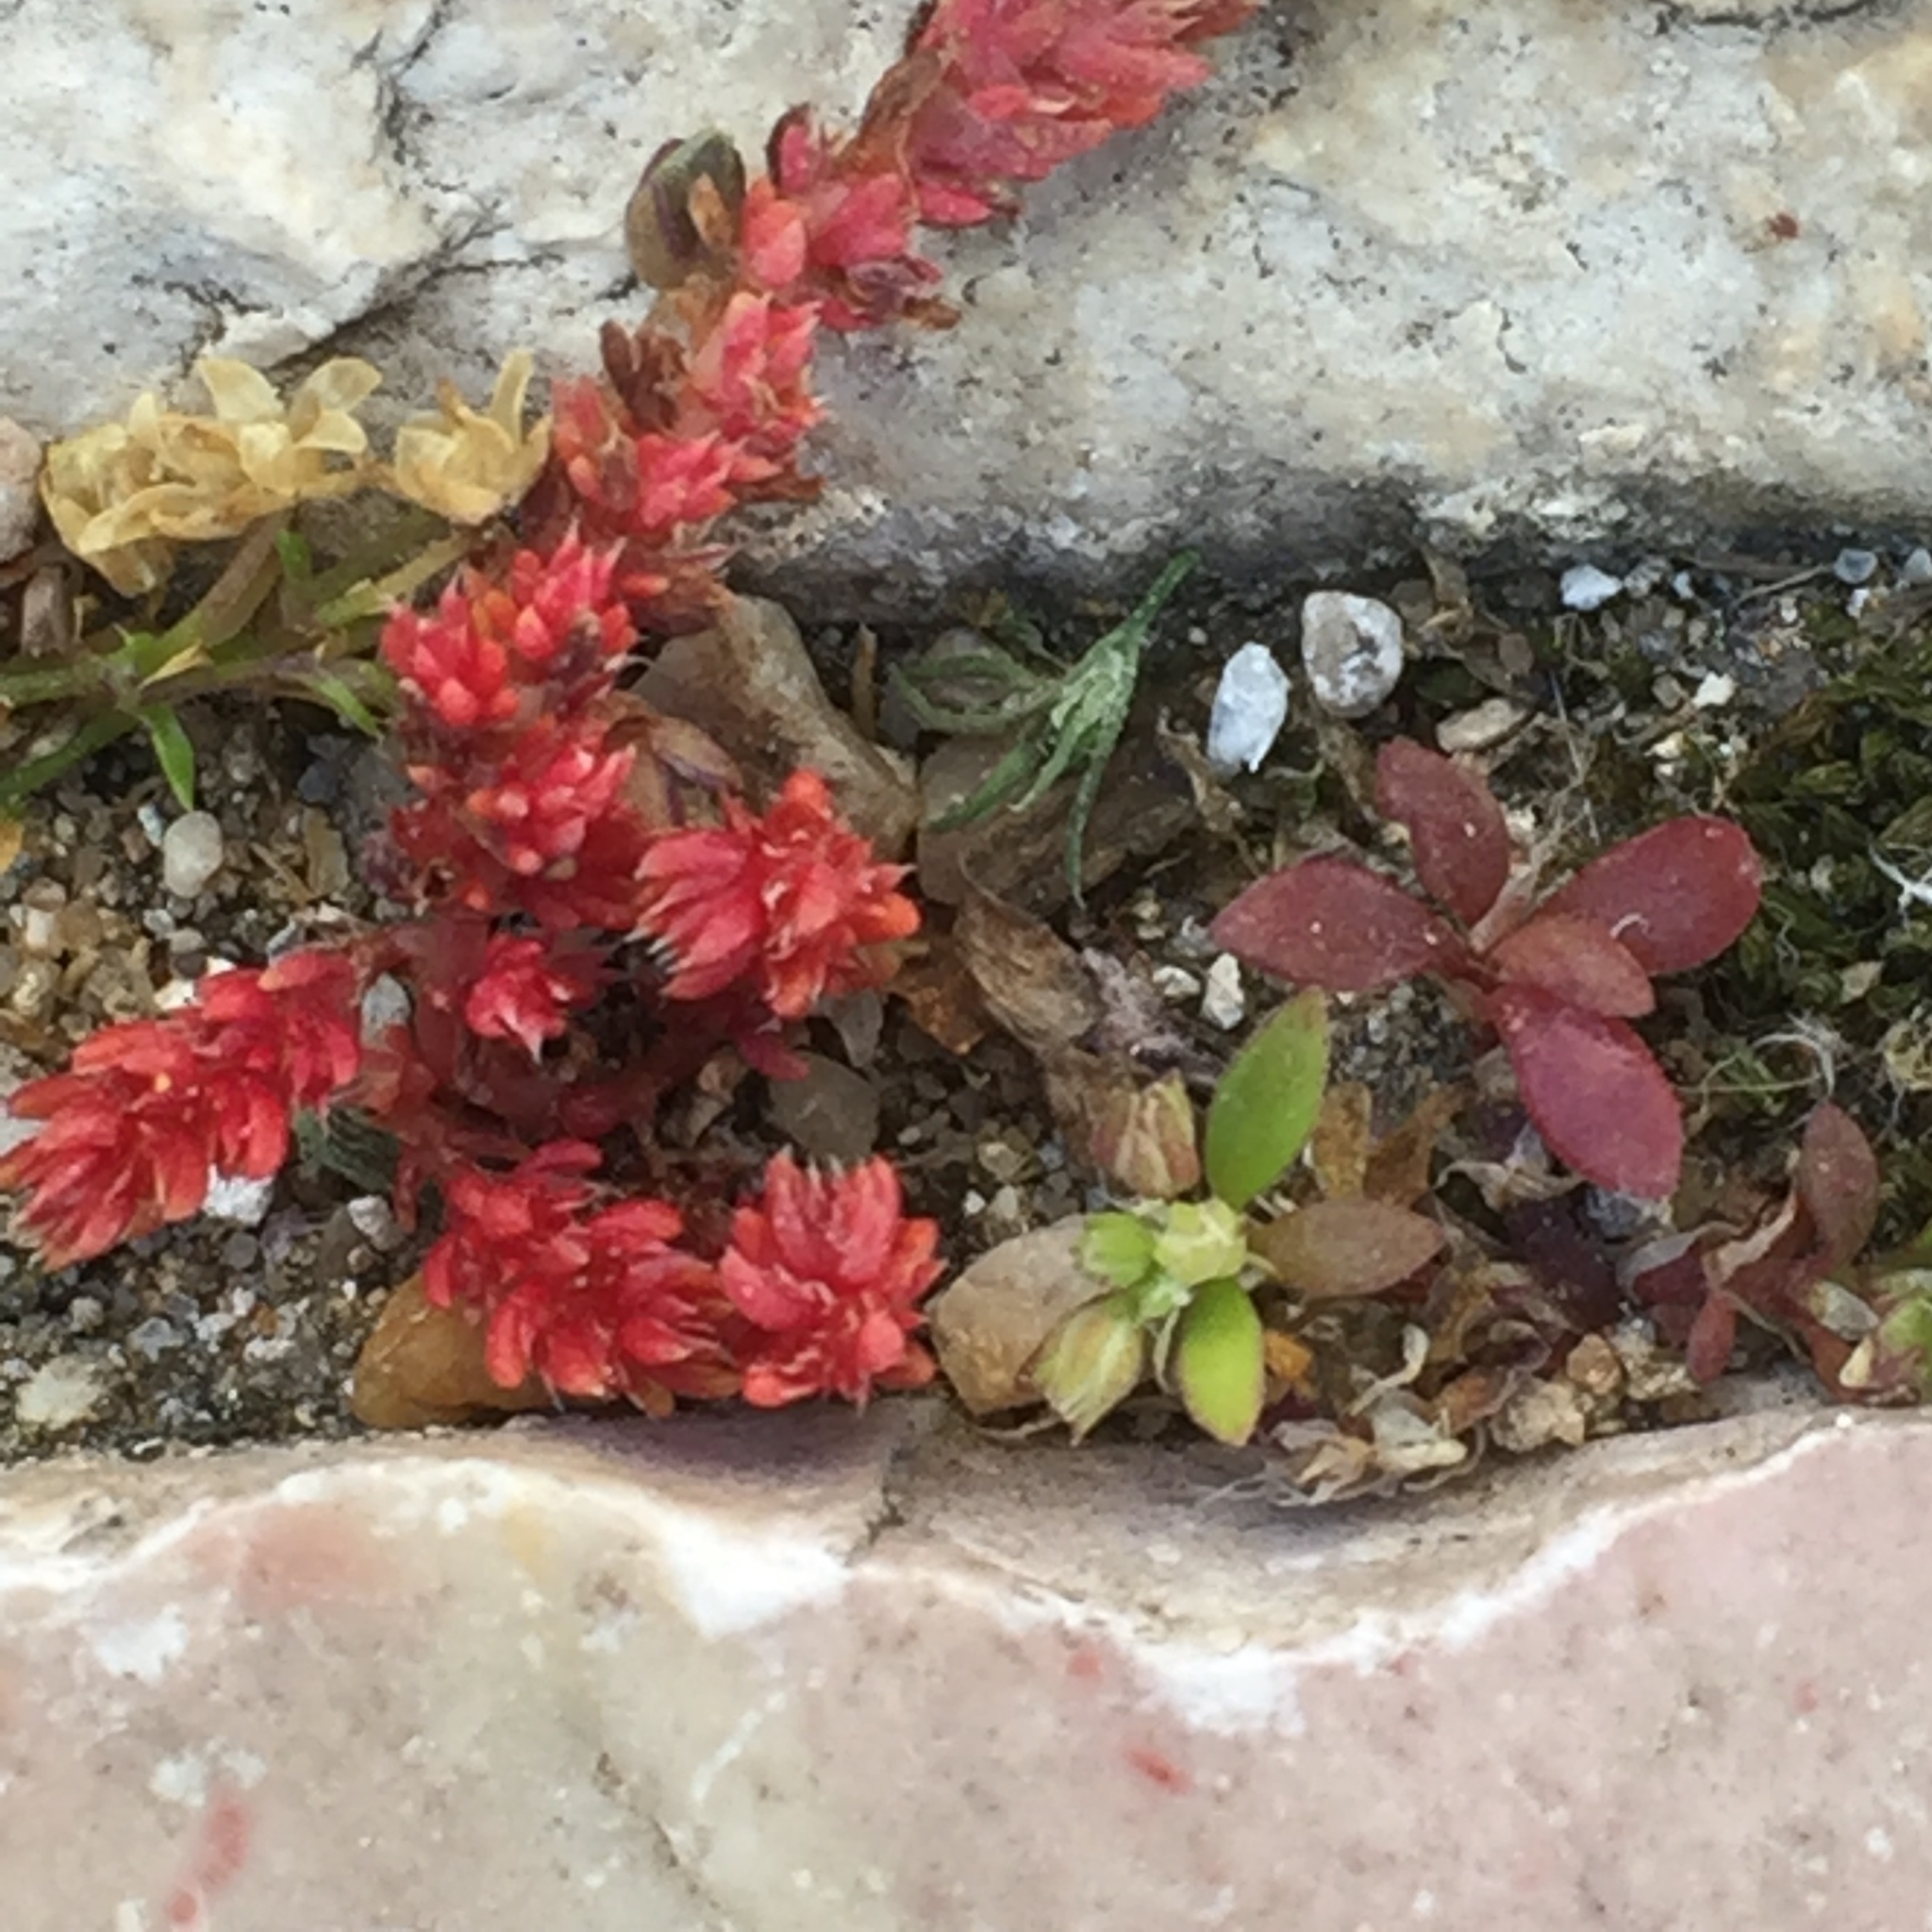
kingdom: Plantae
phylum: Tracheophyta
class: Magnoliopsida
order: Saxifragales
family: Crassulaceae
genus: Crassula
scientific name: Crassula tillaea
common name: Mossy stonecrop
